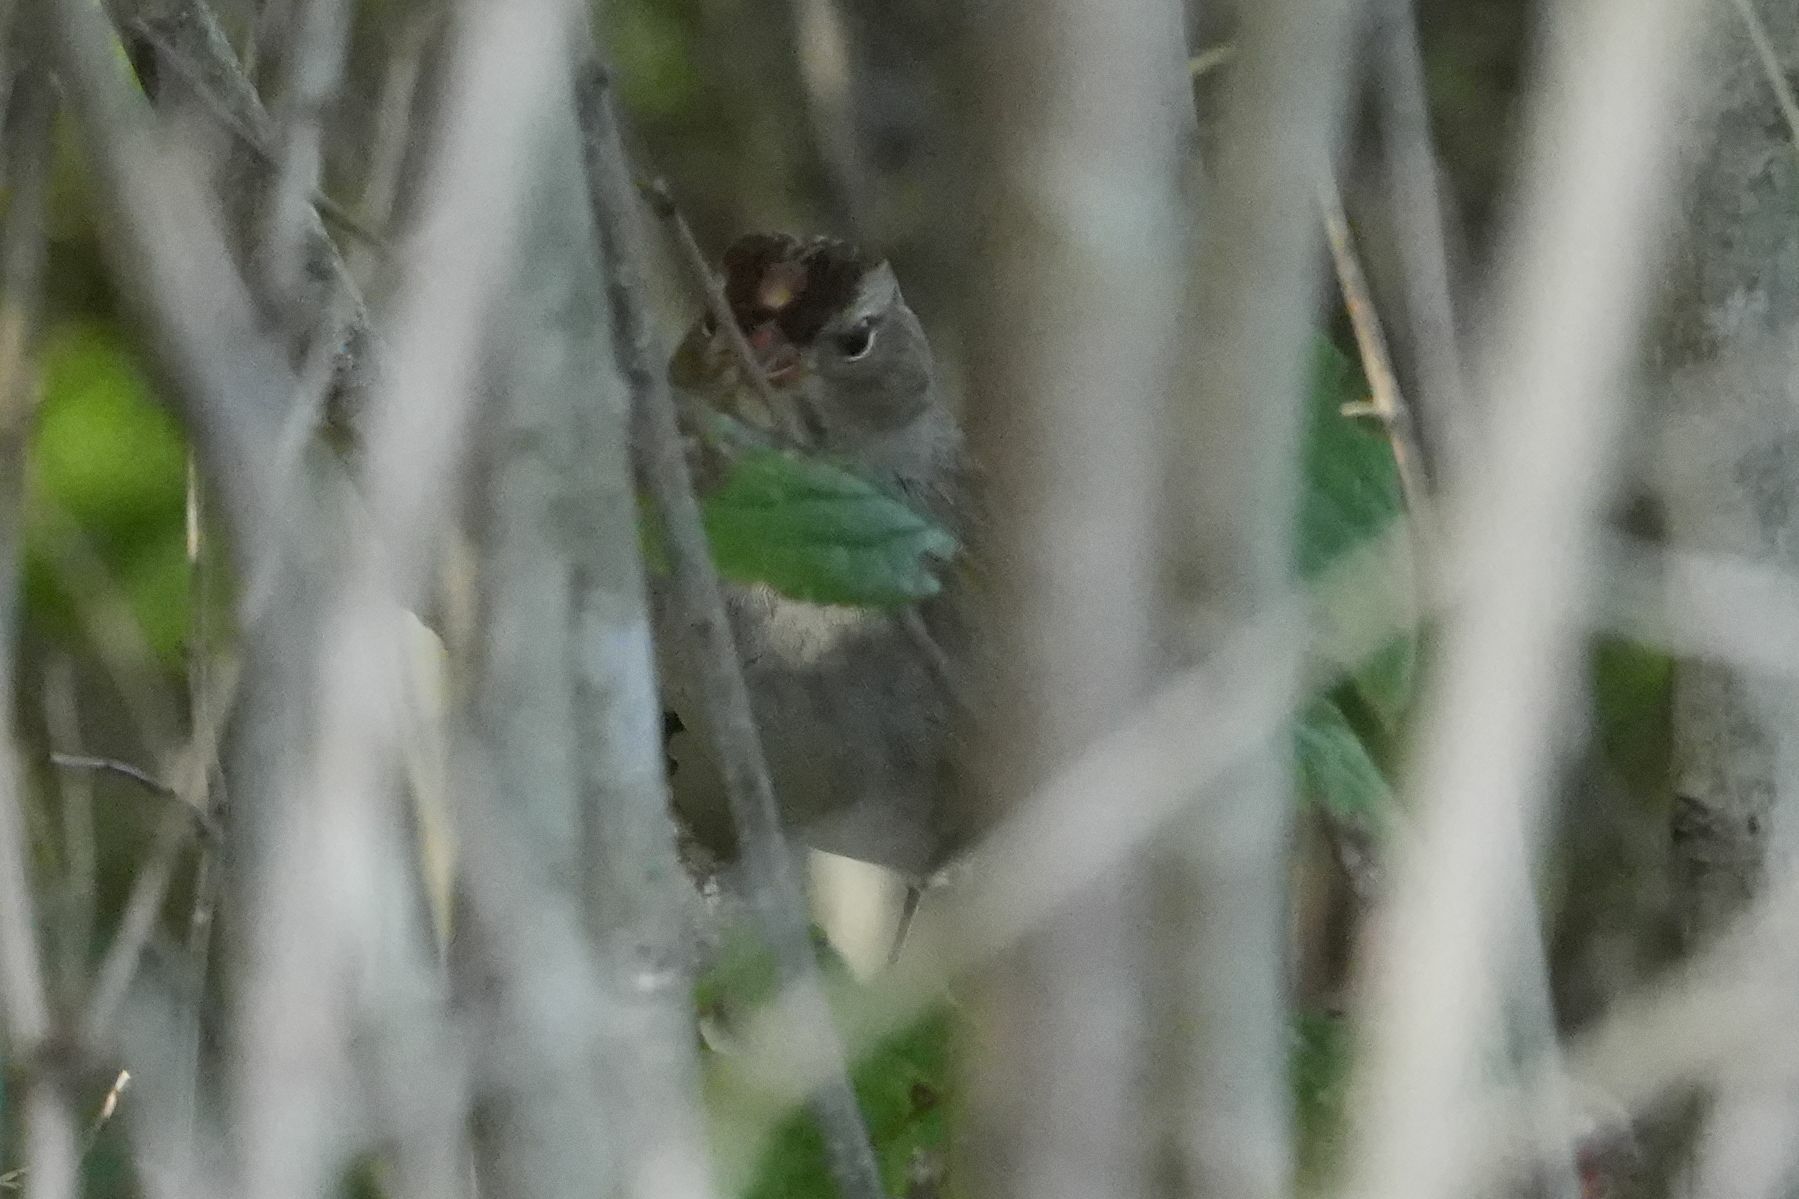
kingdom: Animalia
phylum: Chordata
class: Aves
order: Passeriformes
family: Passerellidae
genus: Zonotrichia
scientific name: Zonotrichia leucophrys
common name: White-crowned sparrow
